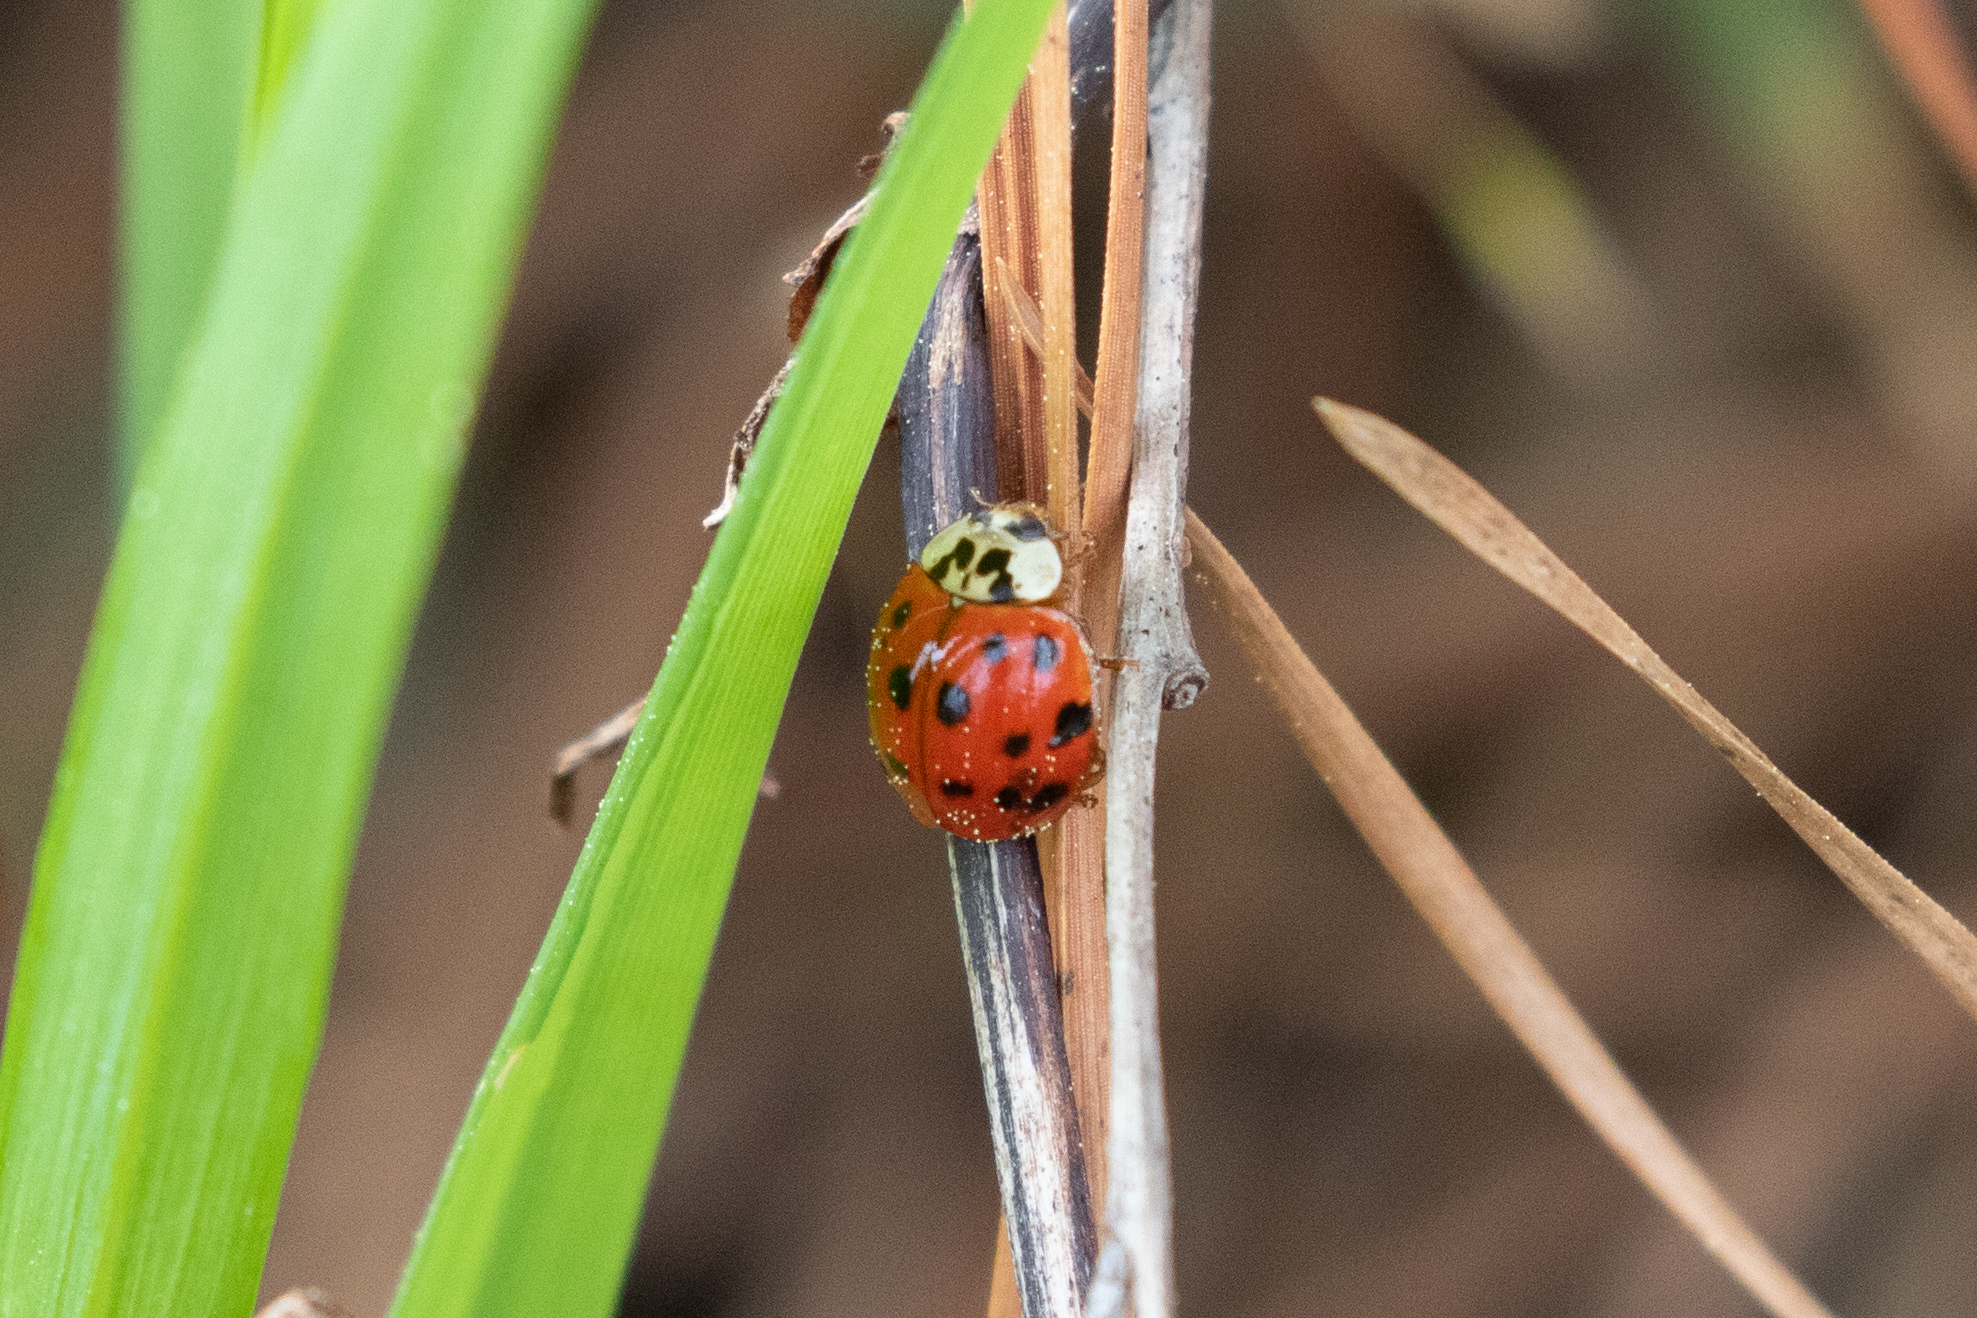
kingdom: Animalia
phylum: Arthropoda
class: Insecta
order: Coleoptera
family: Coccinellidae
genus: Harmonia
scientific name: Harmonia axyridis
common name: Harlequin ladybird
